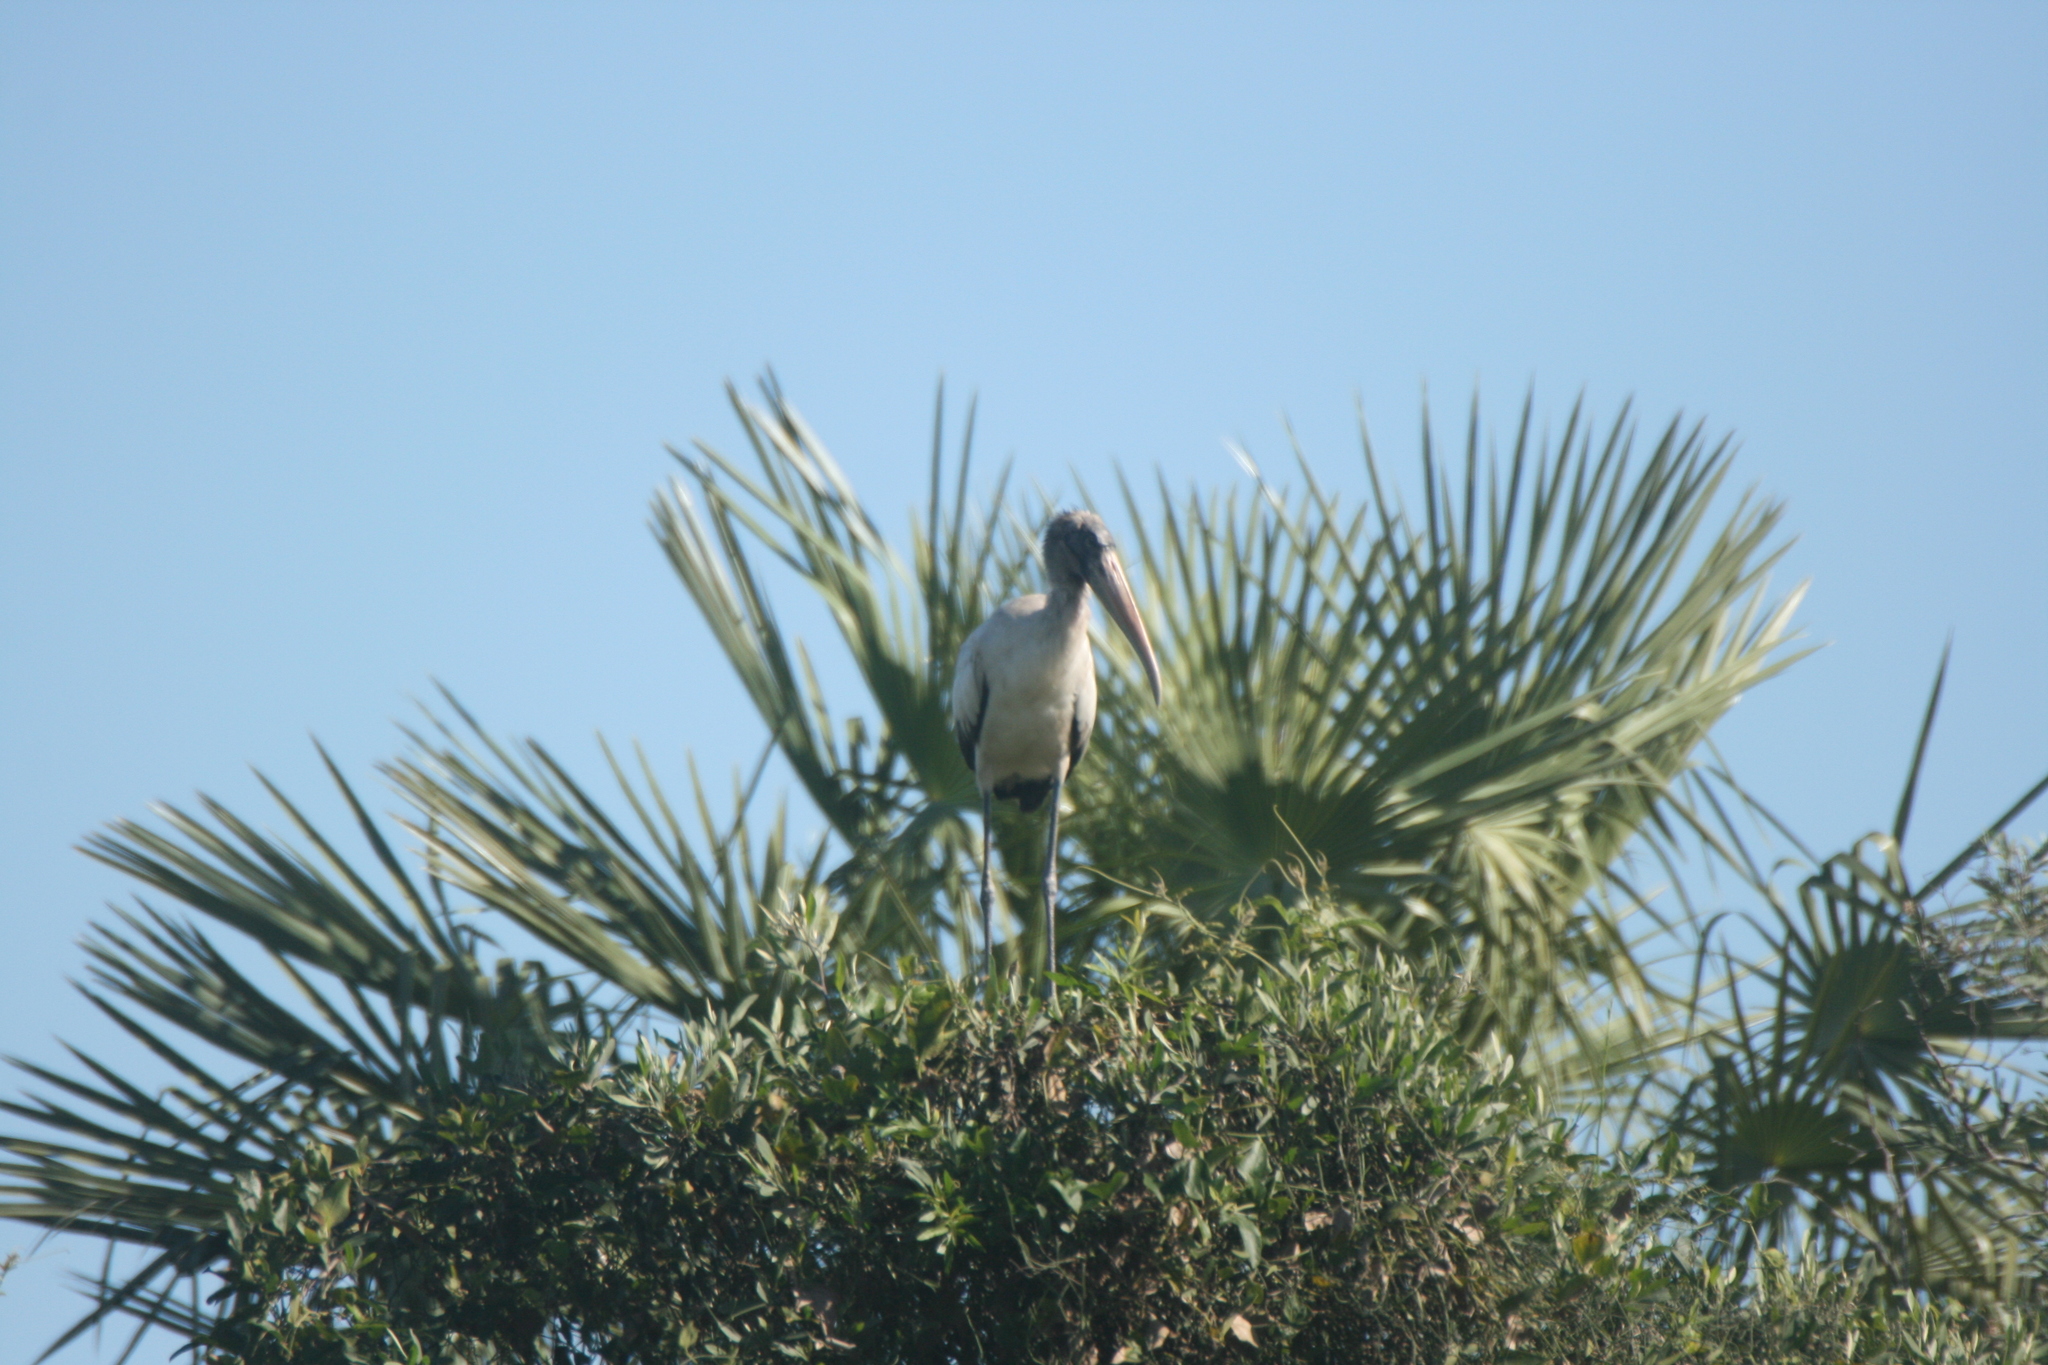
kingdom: Animalia
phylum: Chordata
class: Aves
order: Ciconiiformes
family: Ciconiidae
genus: Mycteria
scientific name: Mycteria americana
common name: Wood stork
